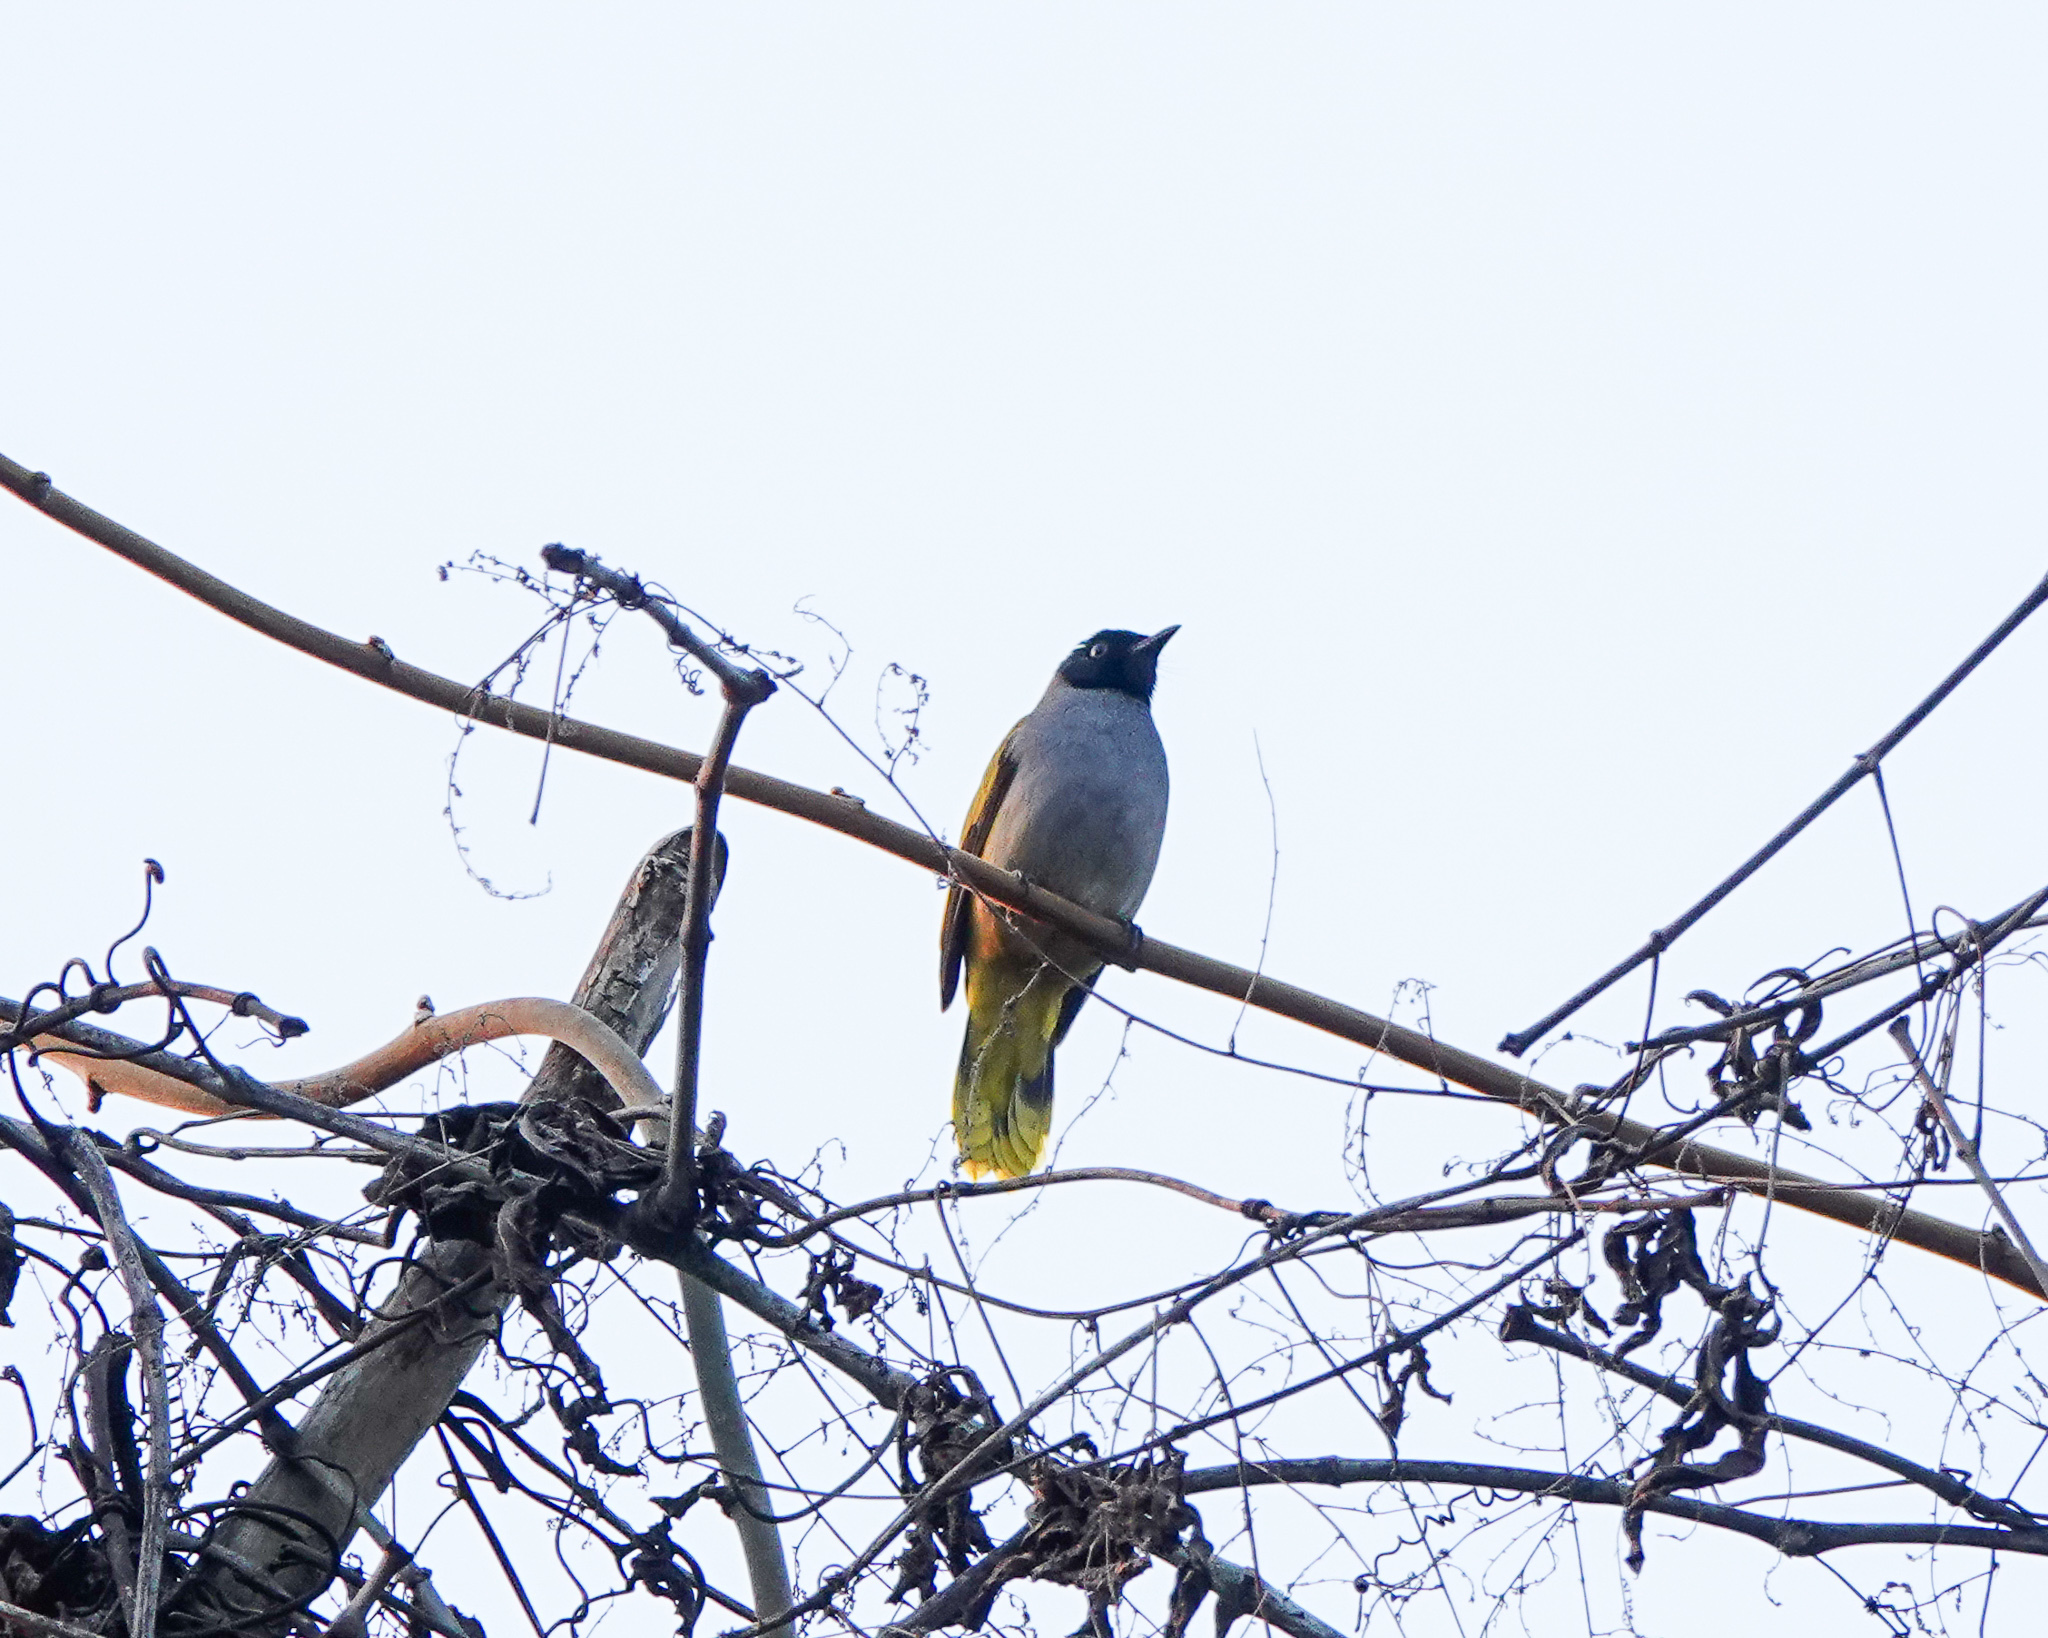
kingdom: Animalia
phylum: Chordata
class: Aves
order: Passeriformes
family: Pycnonotidae
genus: Microtarsus
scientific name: Microtarsus
